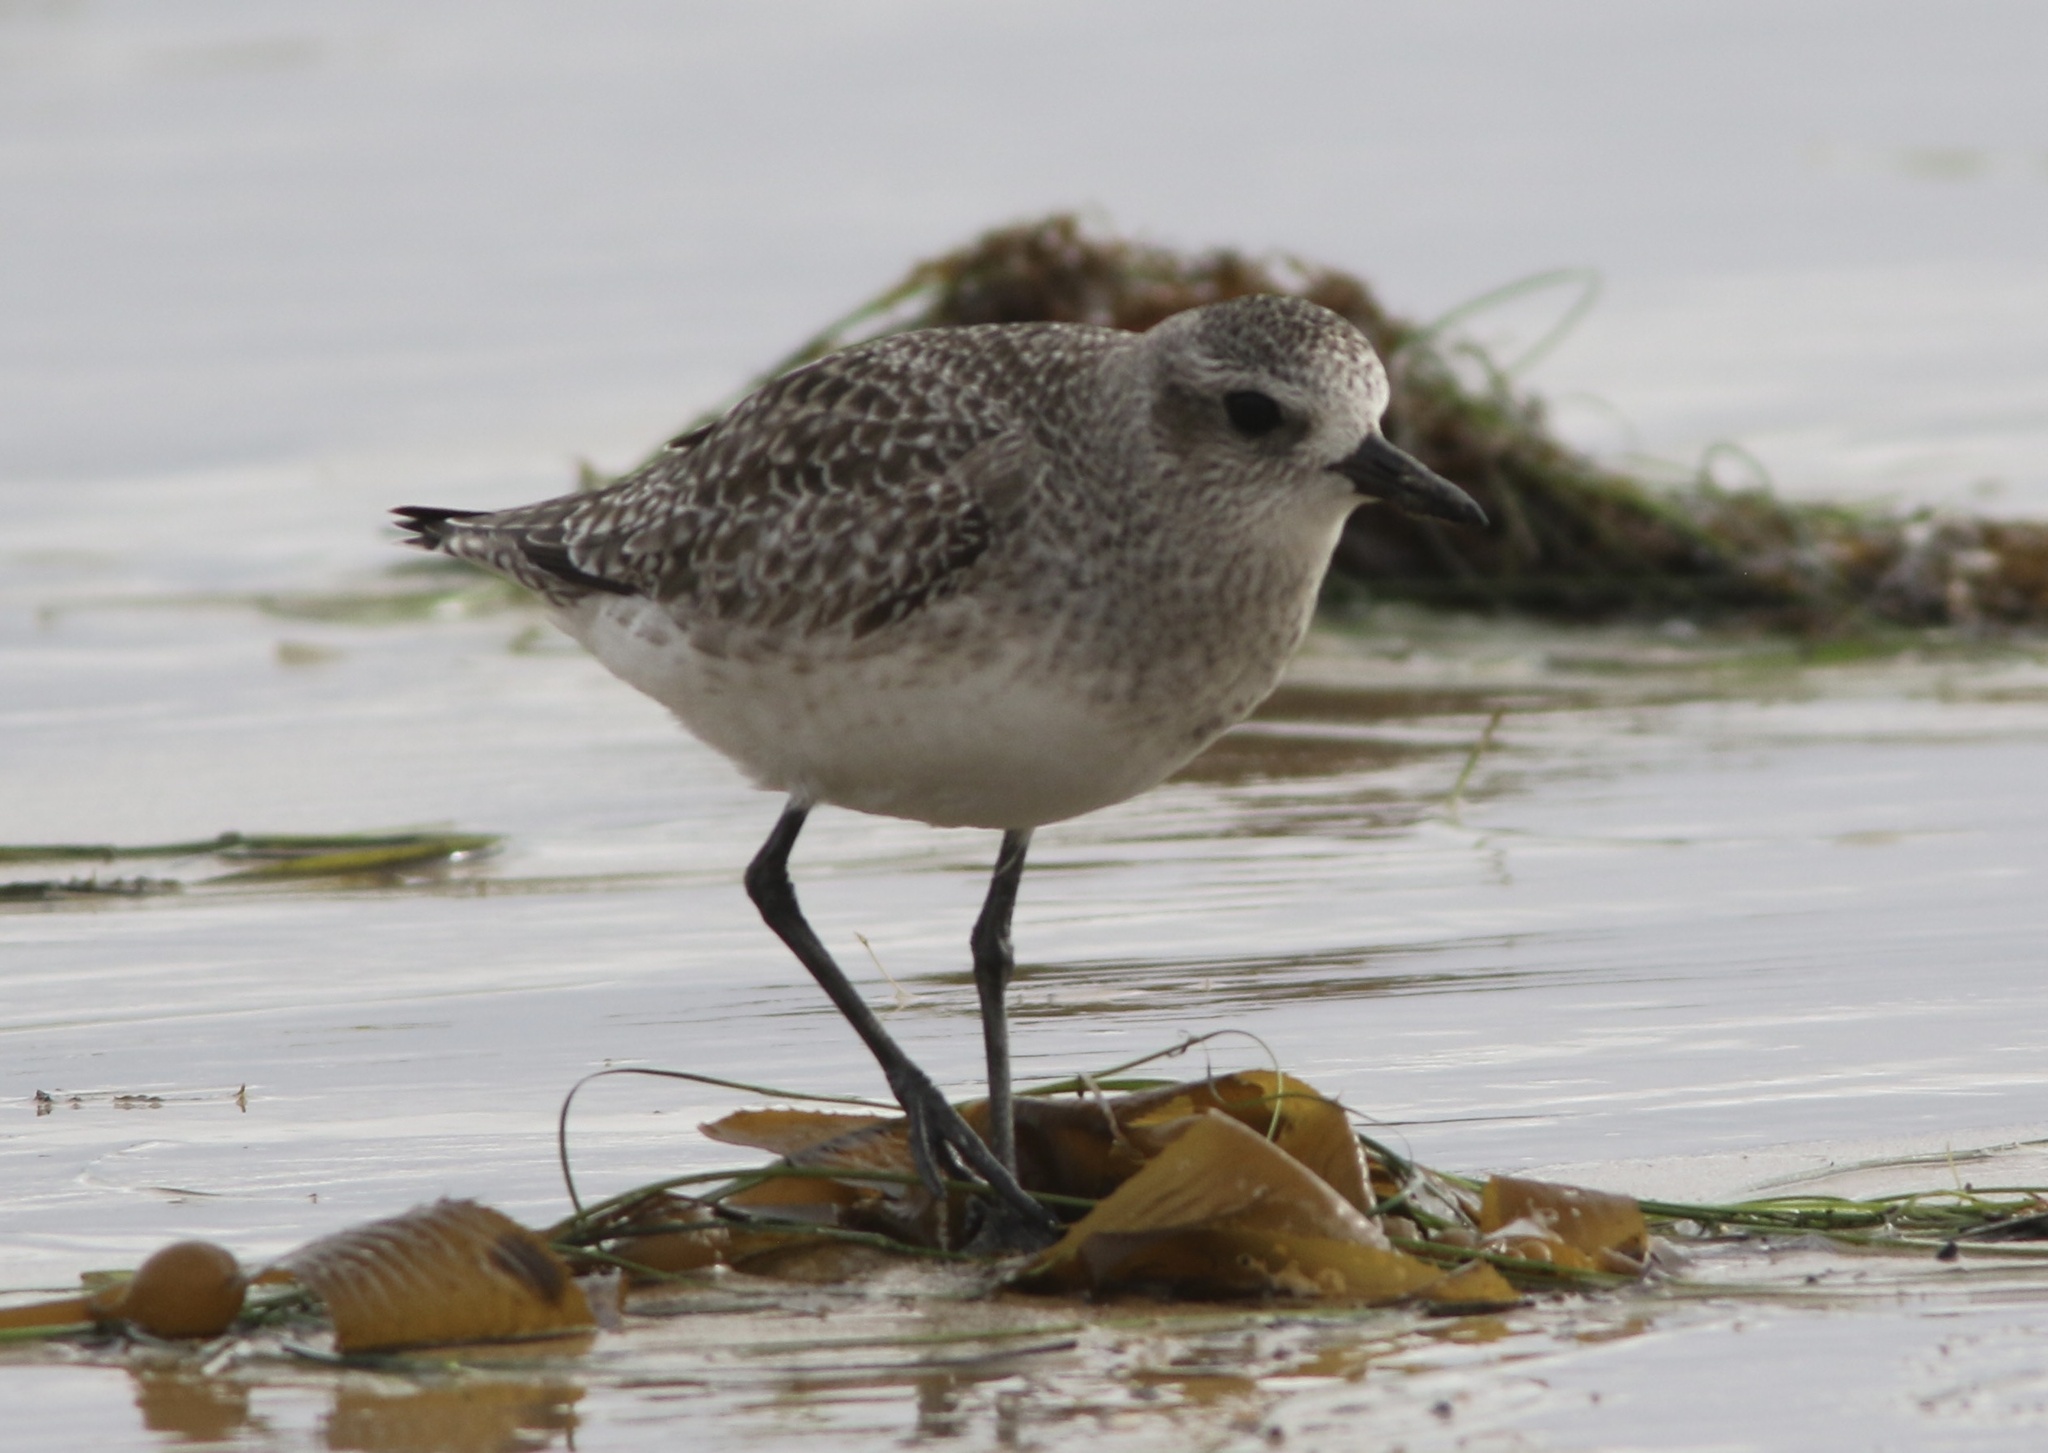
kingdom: Animalia
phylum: Chordata
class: Aves
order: Charadriiformes
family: Charadriidae
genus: Pluvialis
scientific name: Pluvialis squatarola
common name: Grey plover
